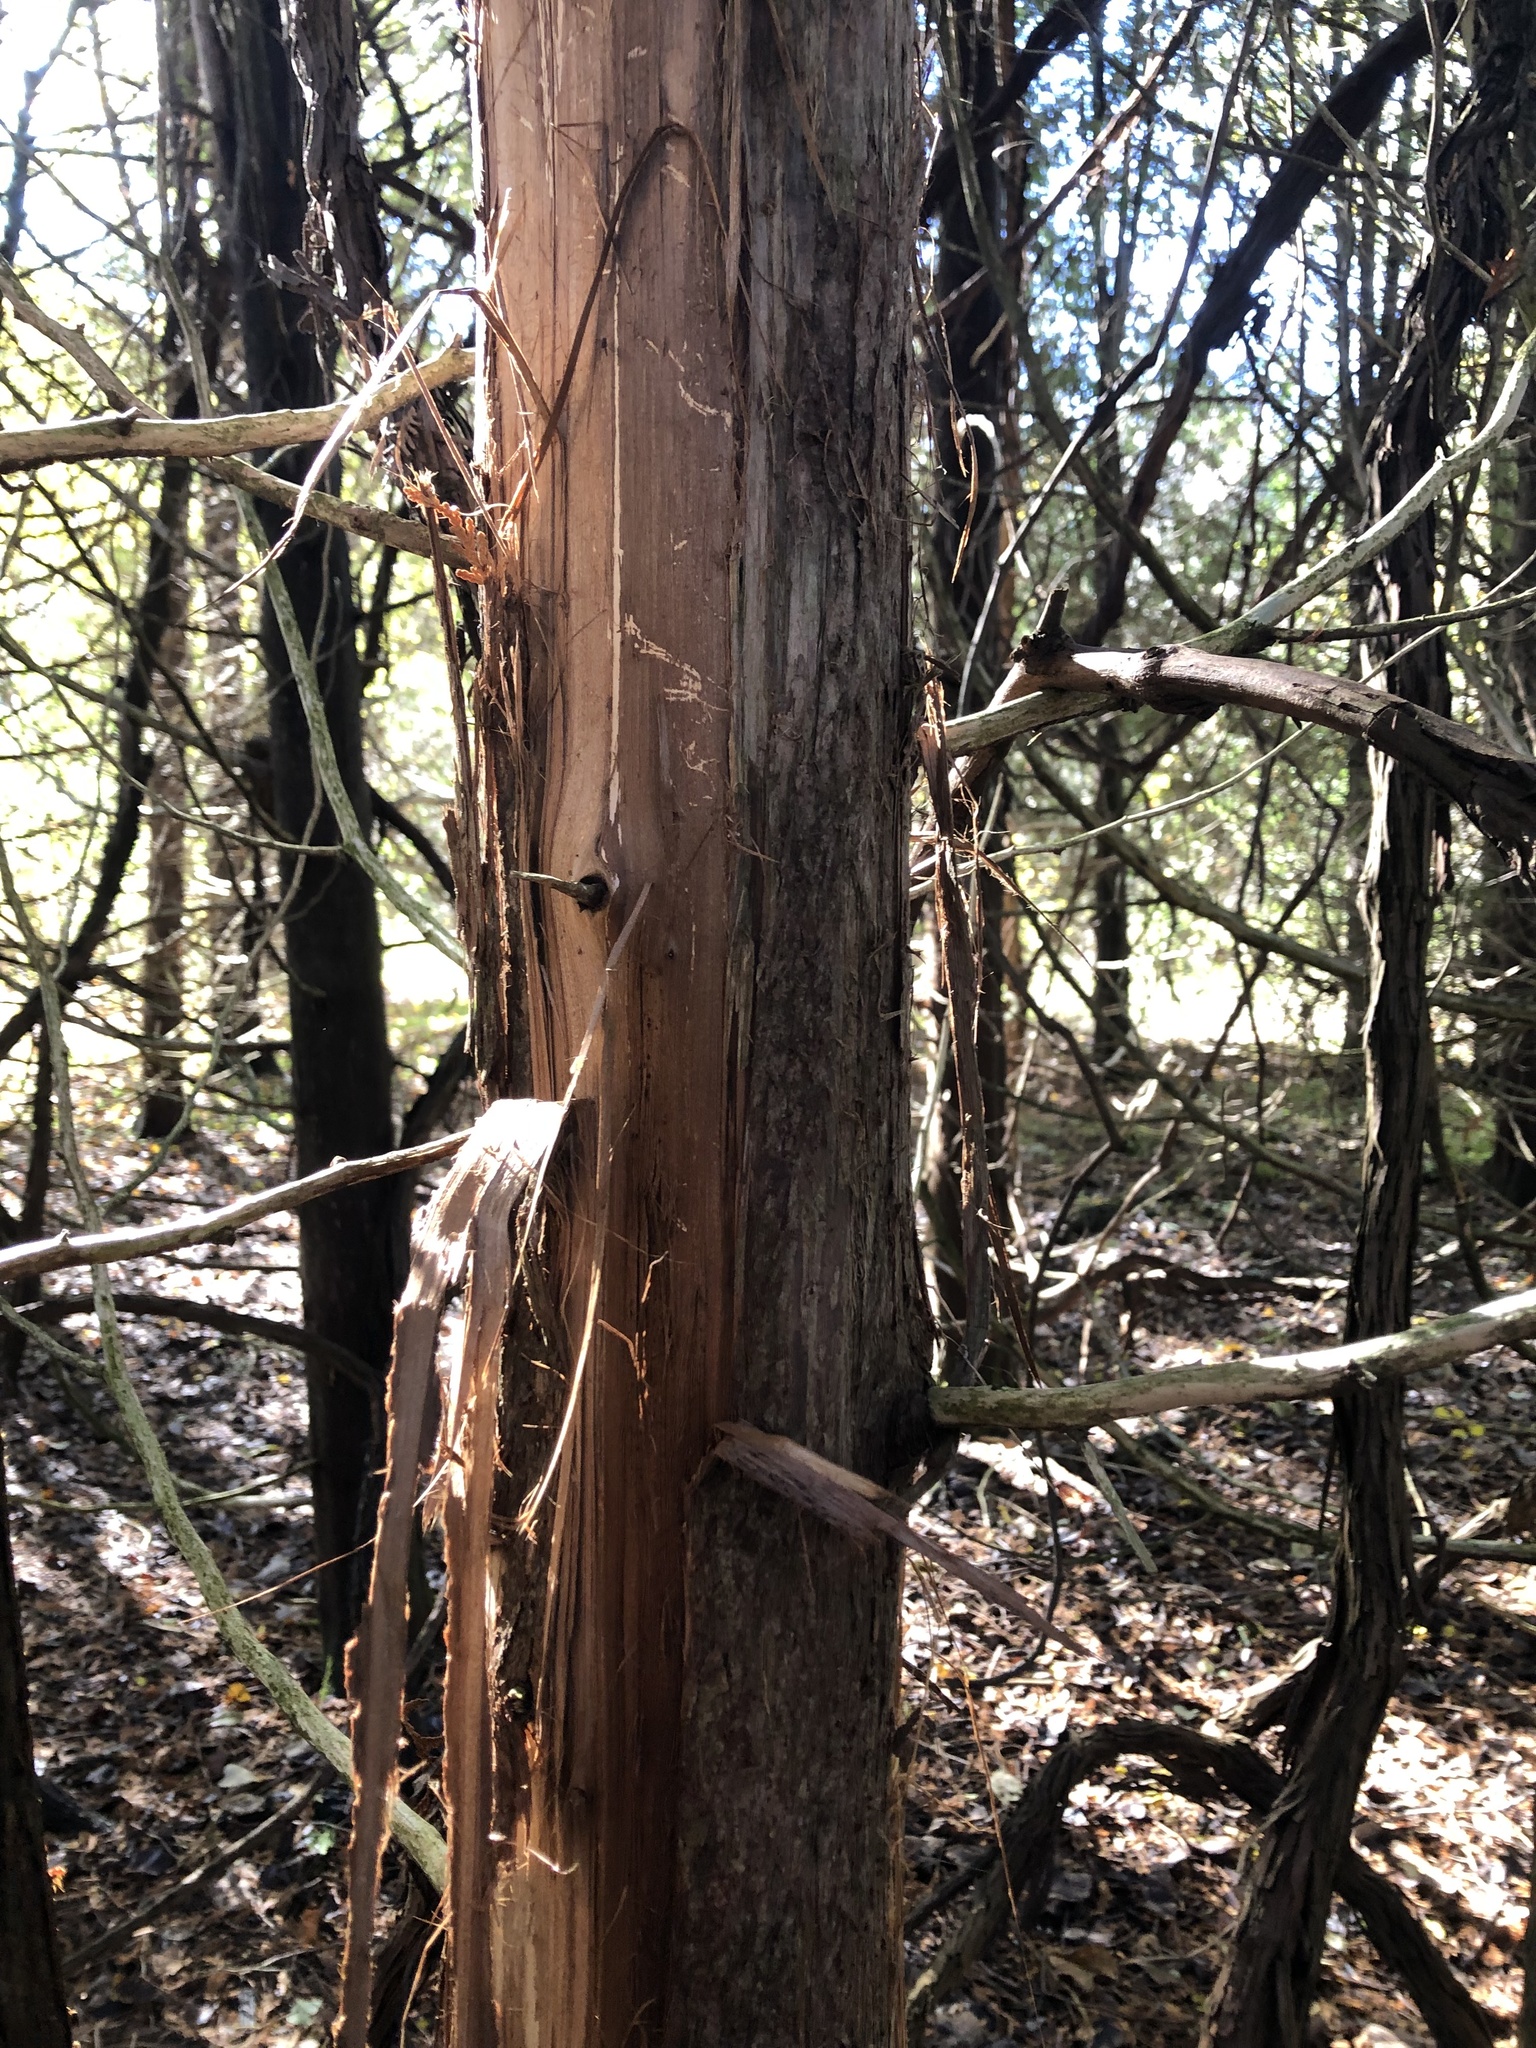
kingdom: Plantae
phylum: Tracheophyta
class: Pinopsida
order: Pinales
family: Cupressaceae
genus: Thuja
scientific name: Thuja occidentalis
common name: Northern white-cedar
